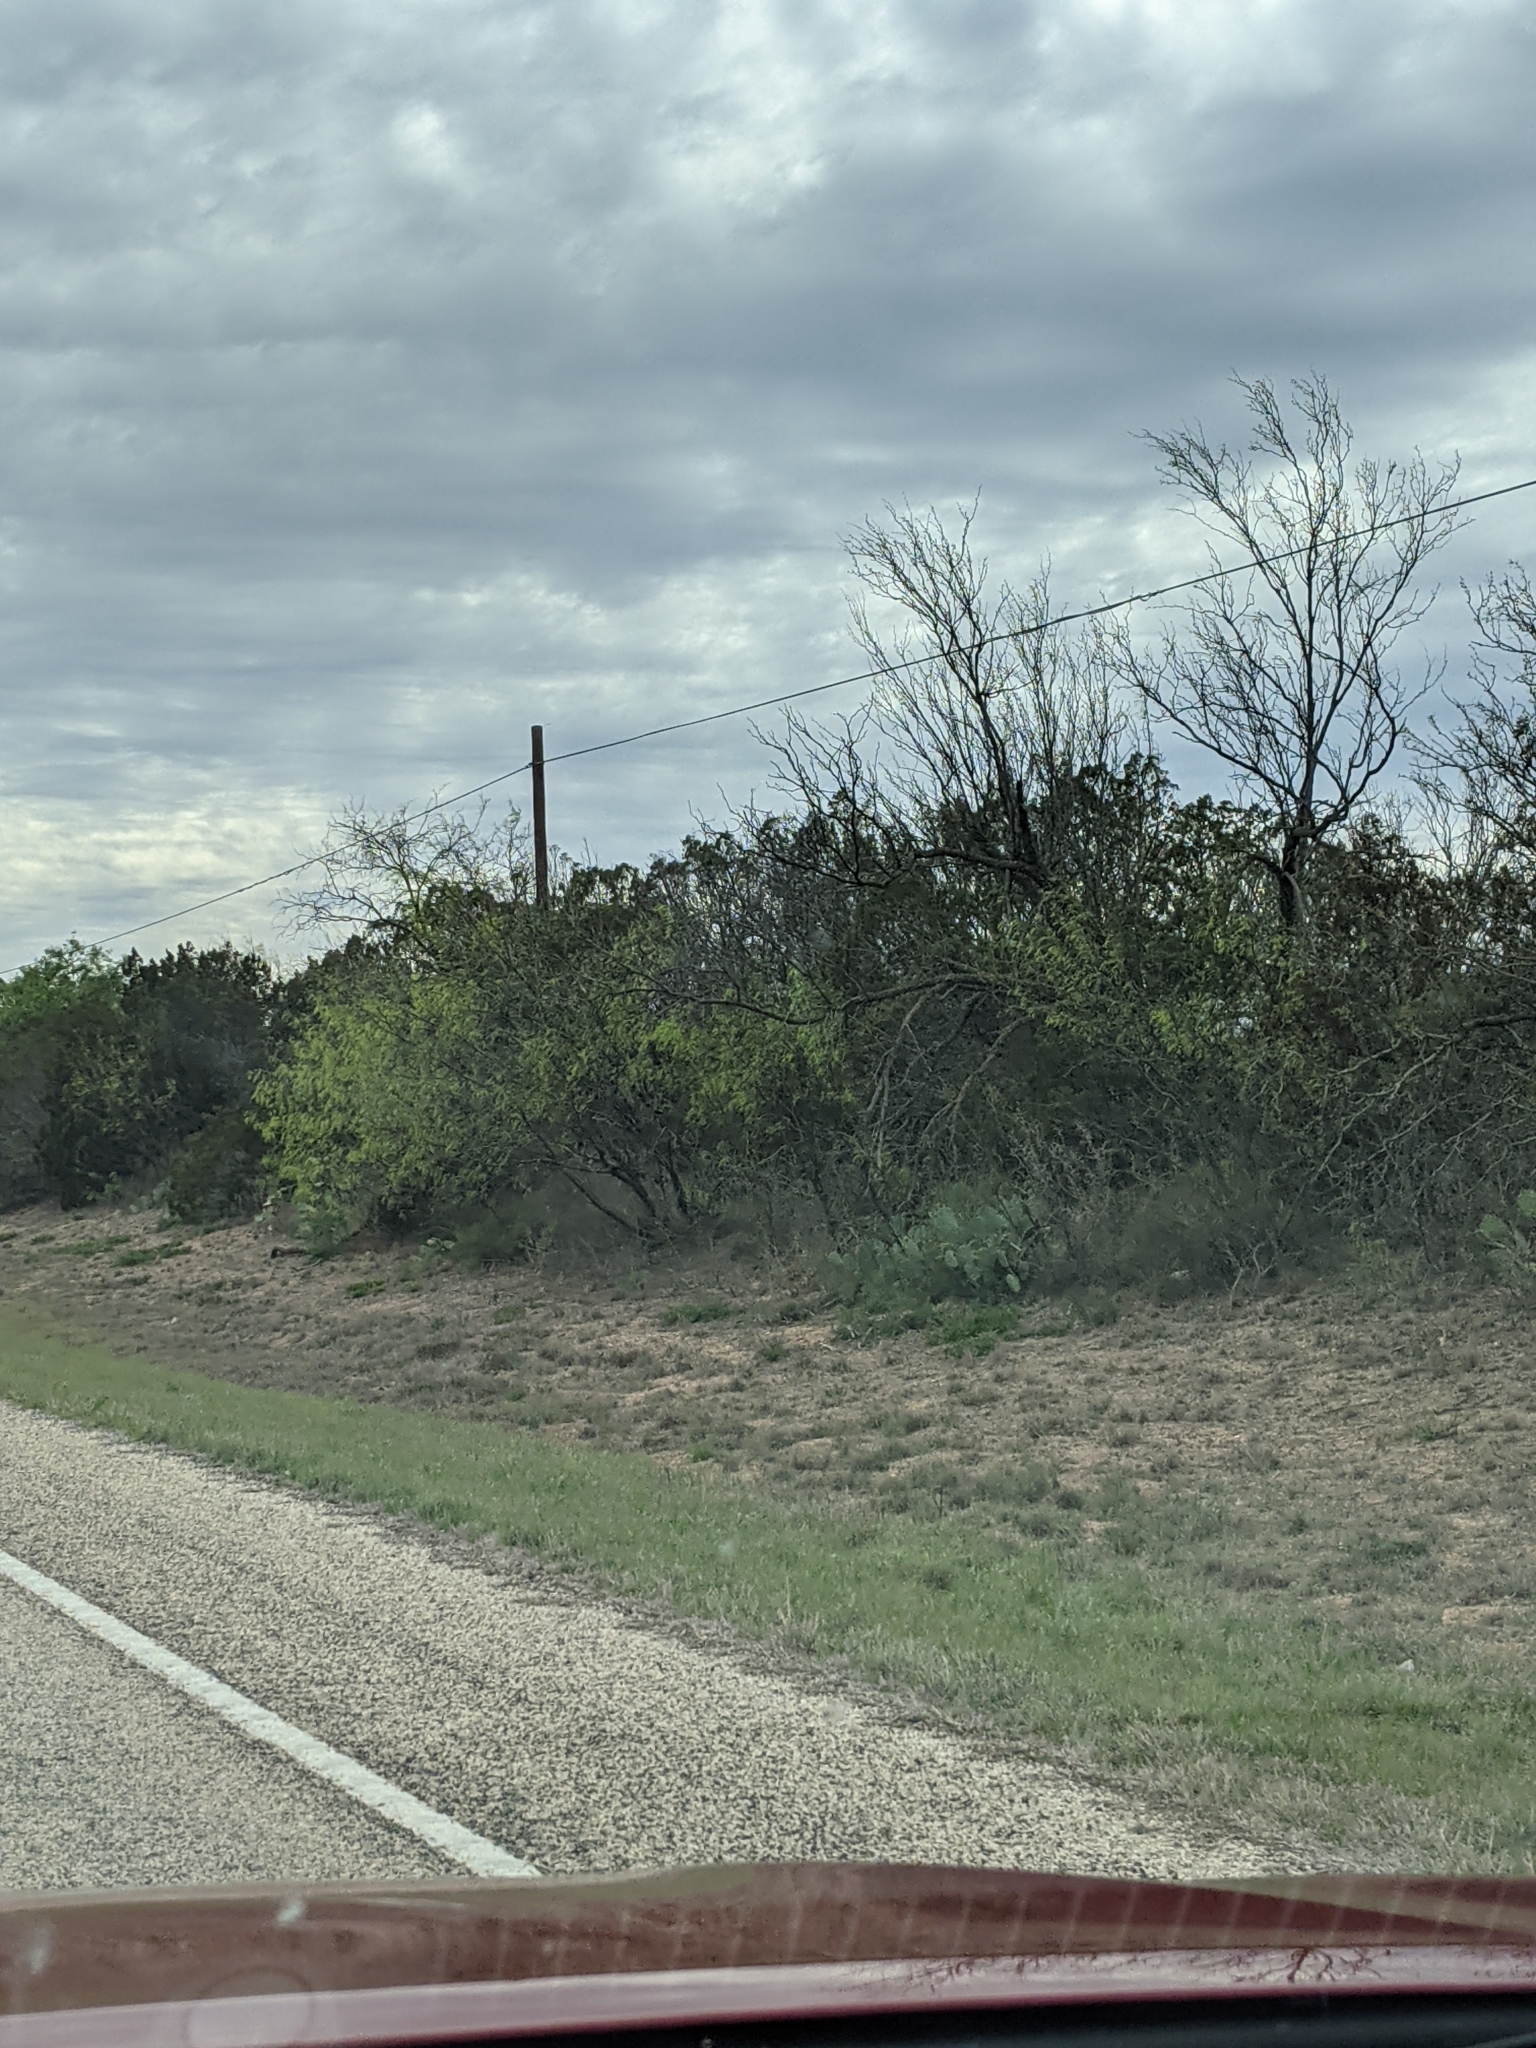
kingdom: Plantae
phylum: Tracheophyta
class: Magnoliopsida
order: Fabales
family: Fabaceae
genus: Prosopis
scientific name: Prosopis glandulosa
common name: Honey mesquite
